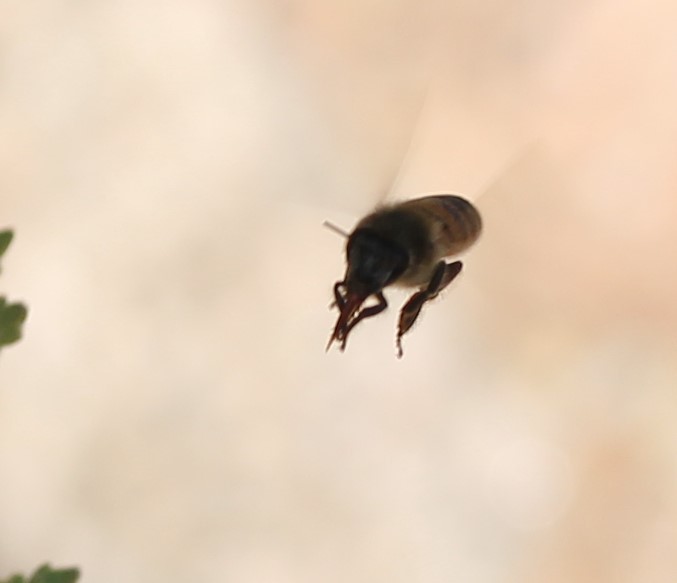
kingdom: Animalia
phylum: Arthropoda
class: Insecta
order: Hymenoptera
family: Apidae
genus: Apis
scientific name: Apis mellifera
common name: Honey bee
